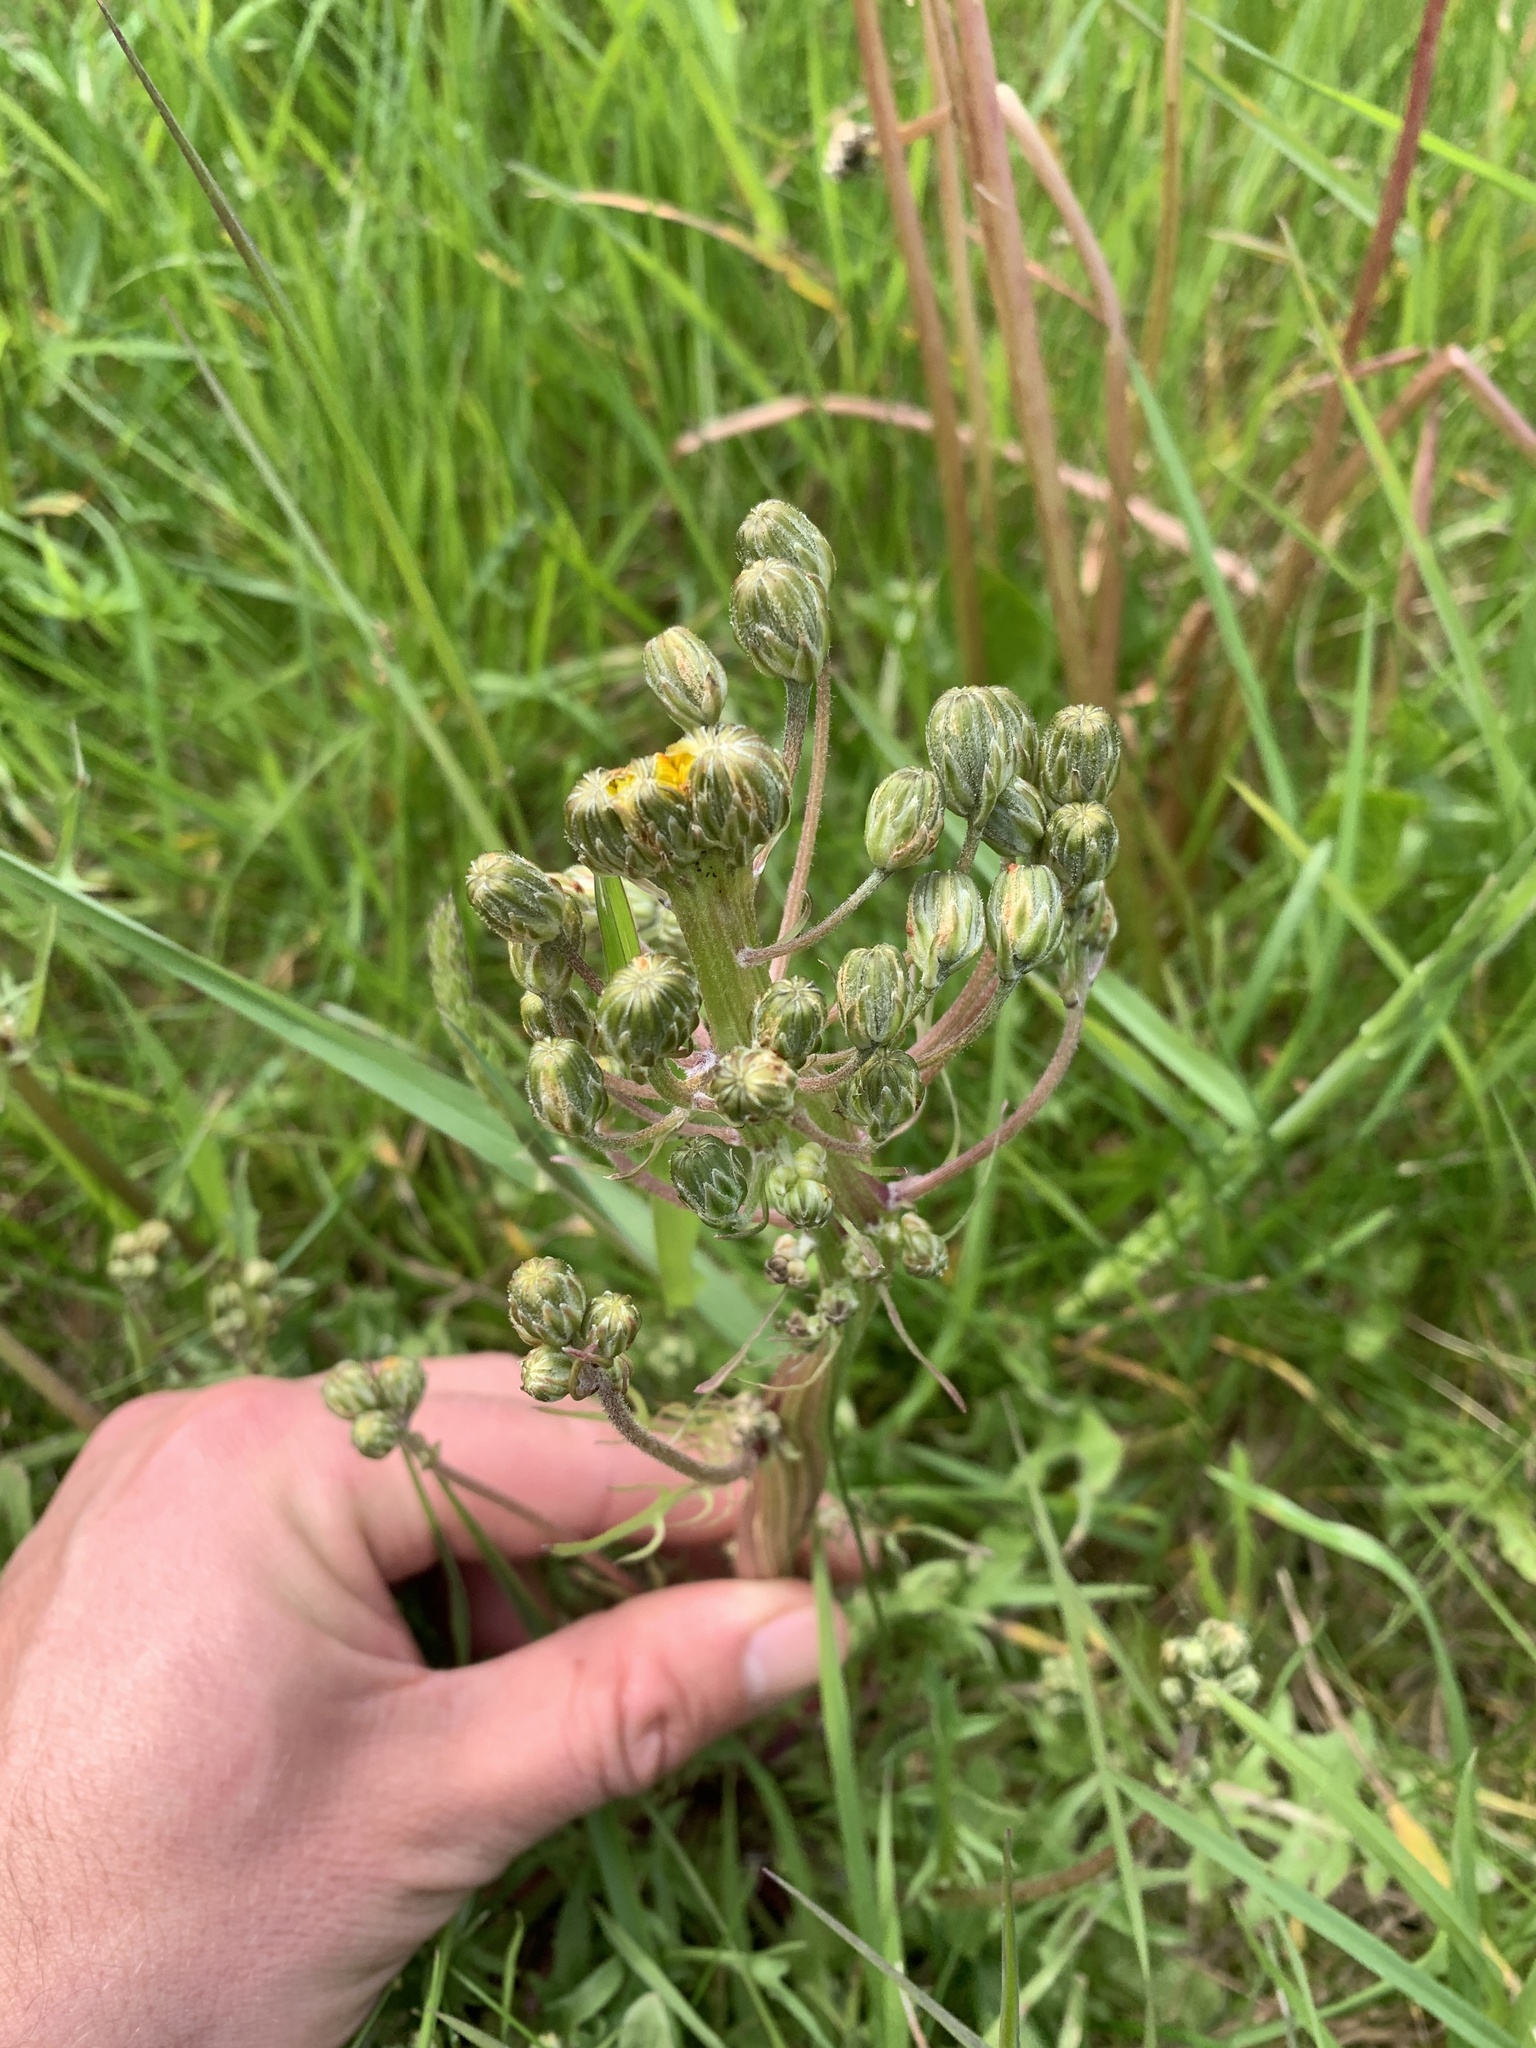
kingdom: Plantae
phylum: Tracheophyta
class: Magnoliopsida
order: Asterales
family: Asteraceae
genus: Crepis
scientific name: Crepis capillaris
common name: Smooth hawksbeard
